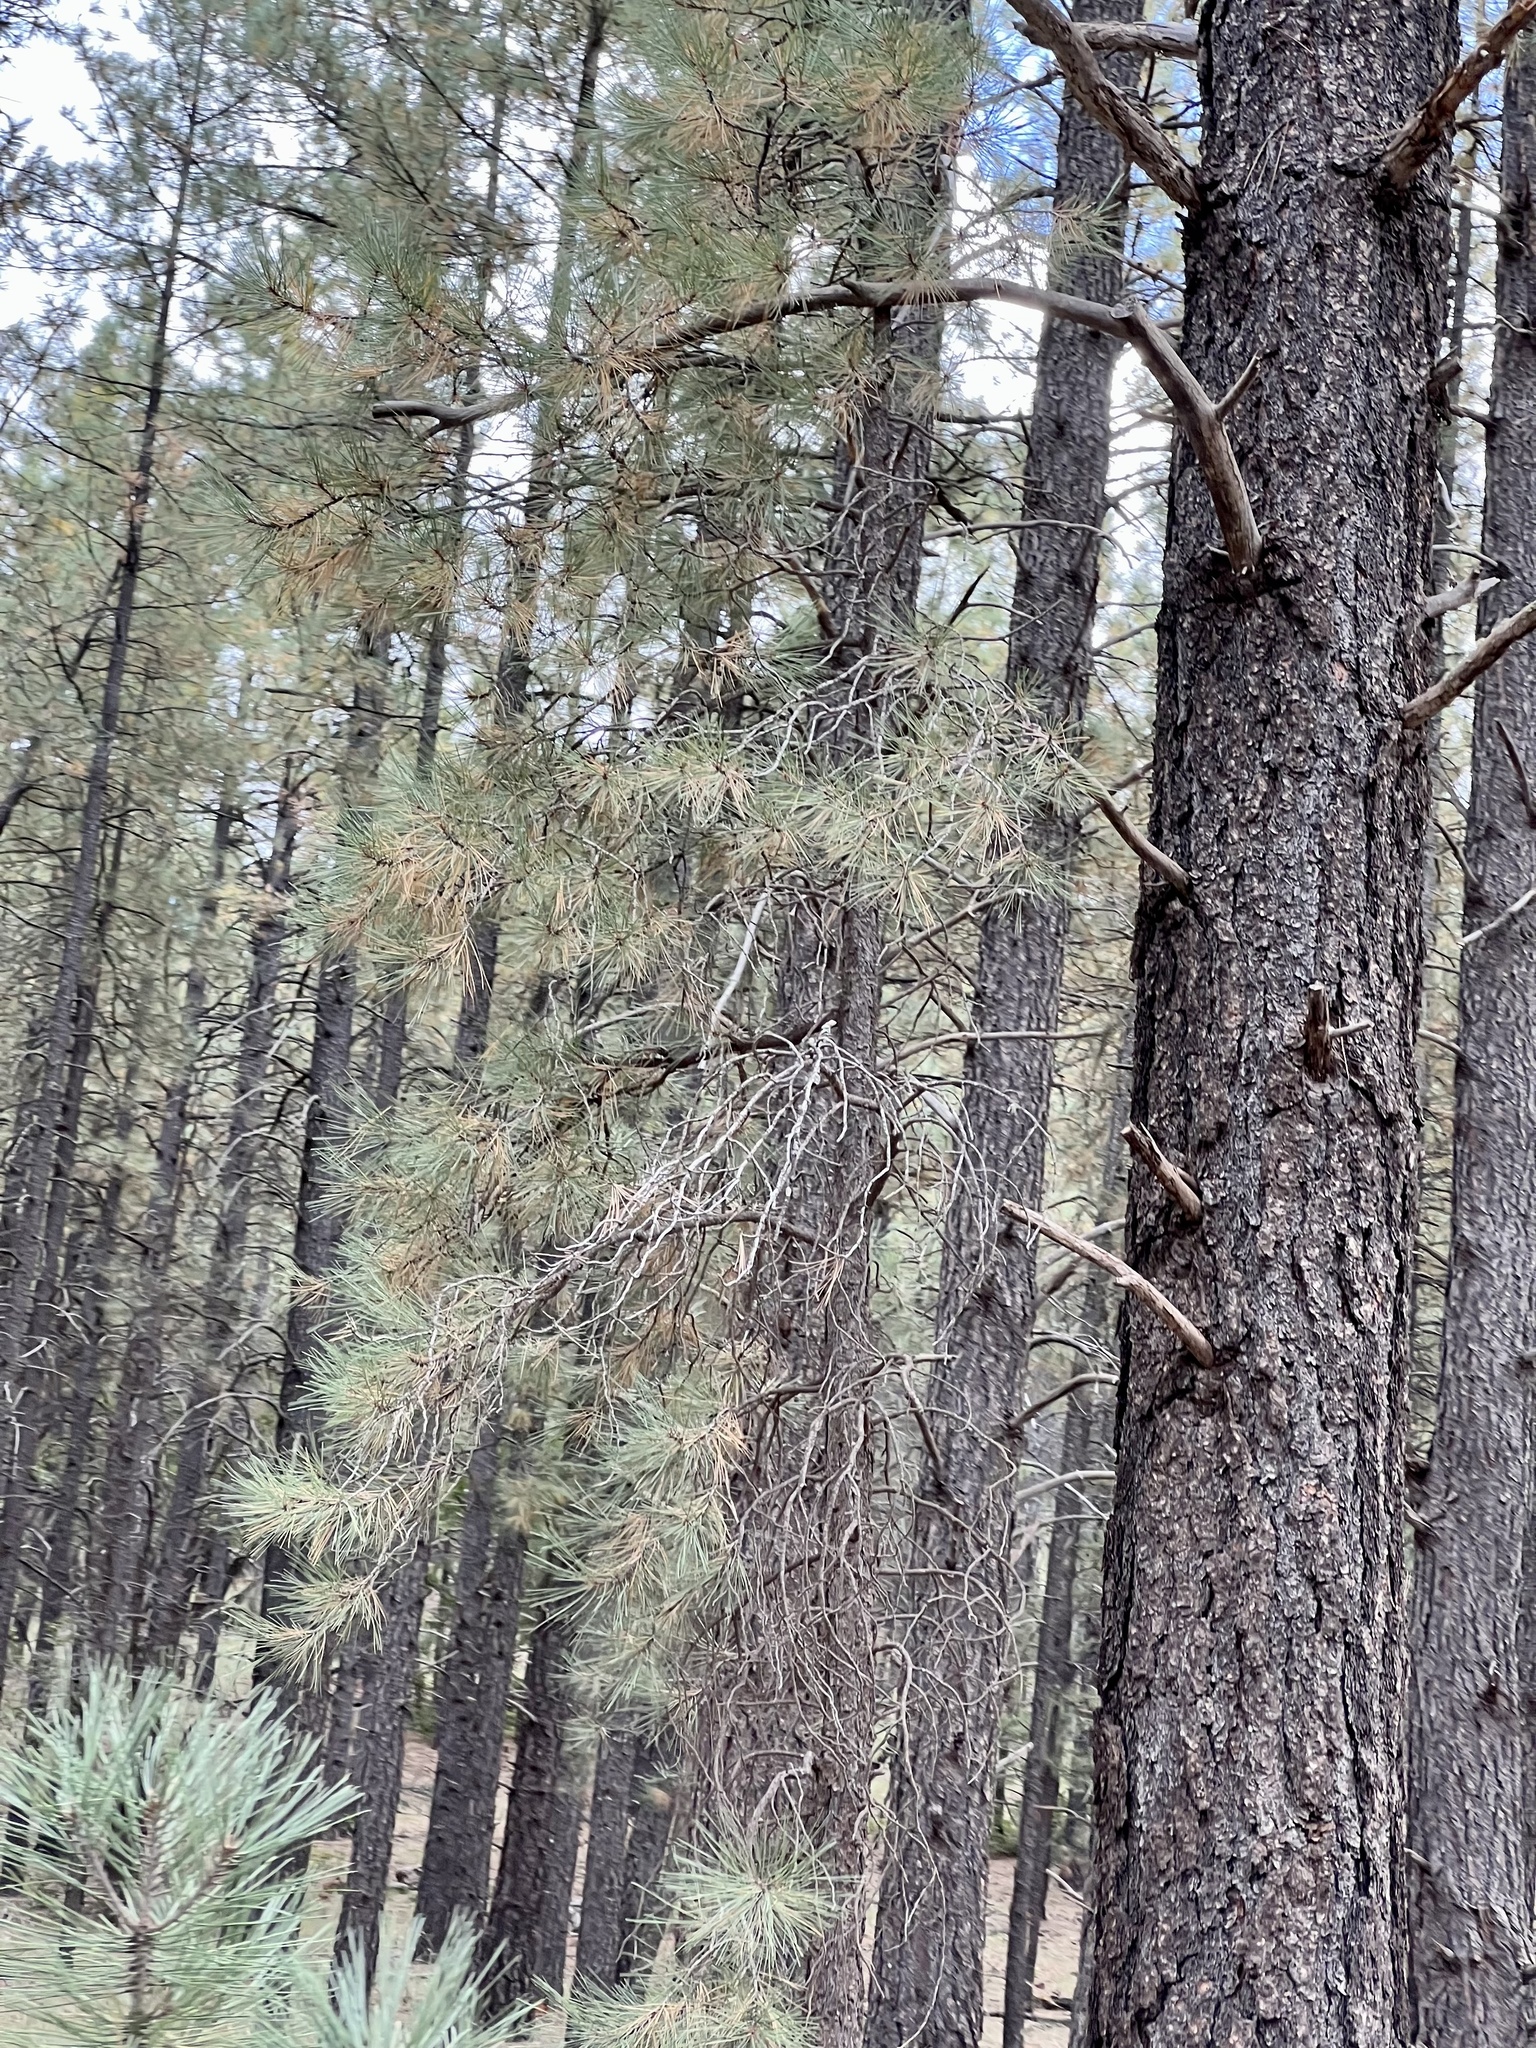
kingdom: Plantae
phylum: Tracheophyta
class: Pinopsida
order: Pinales
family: Pinaceae
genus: Pinus
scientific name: Pinus ponderosa
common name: Western yellow-pine
